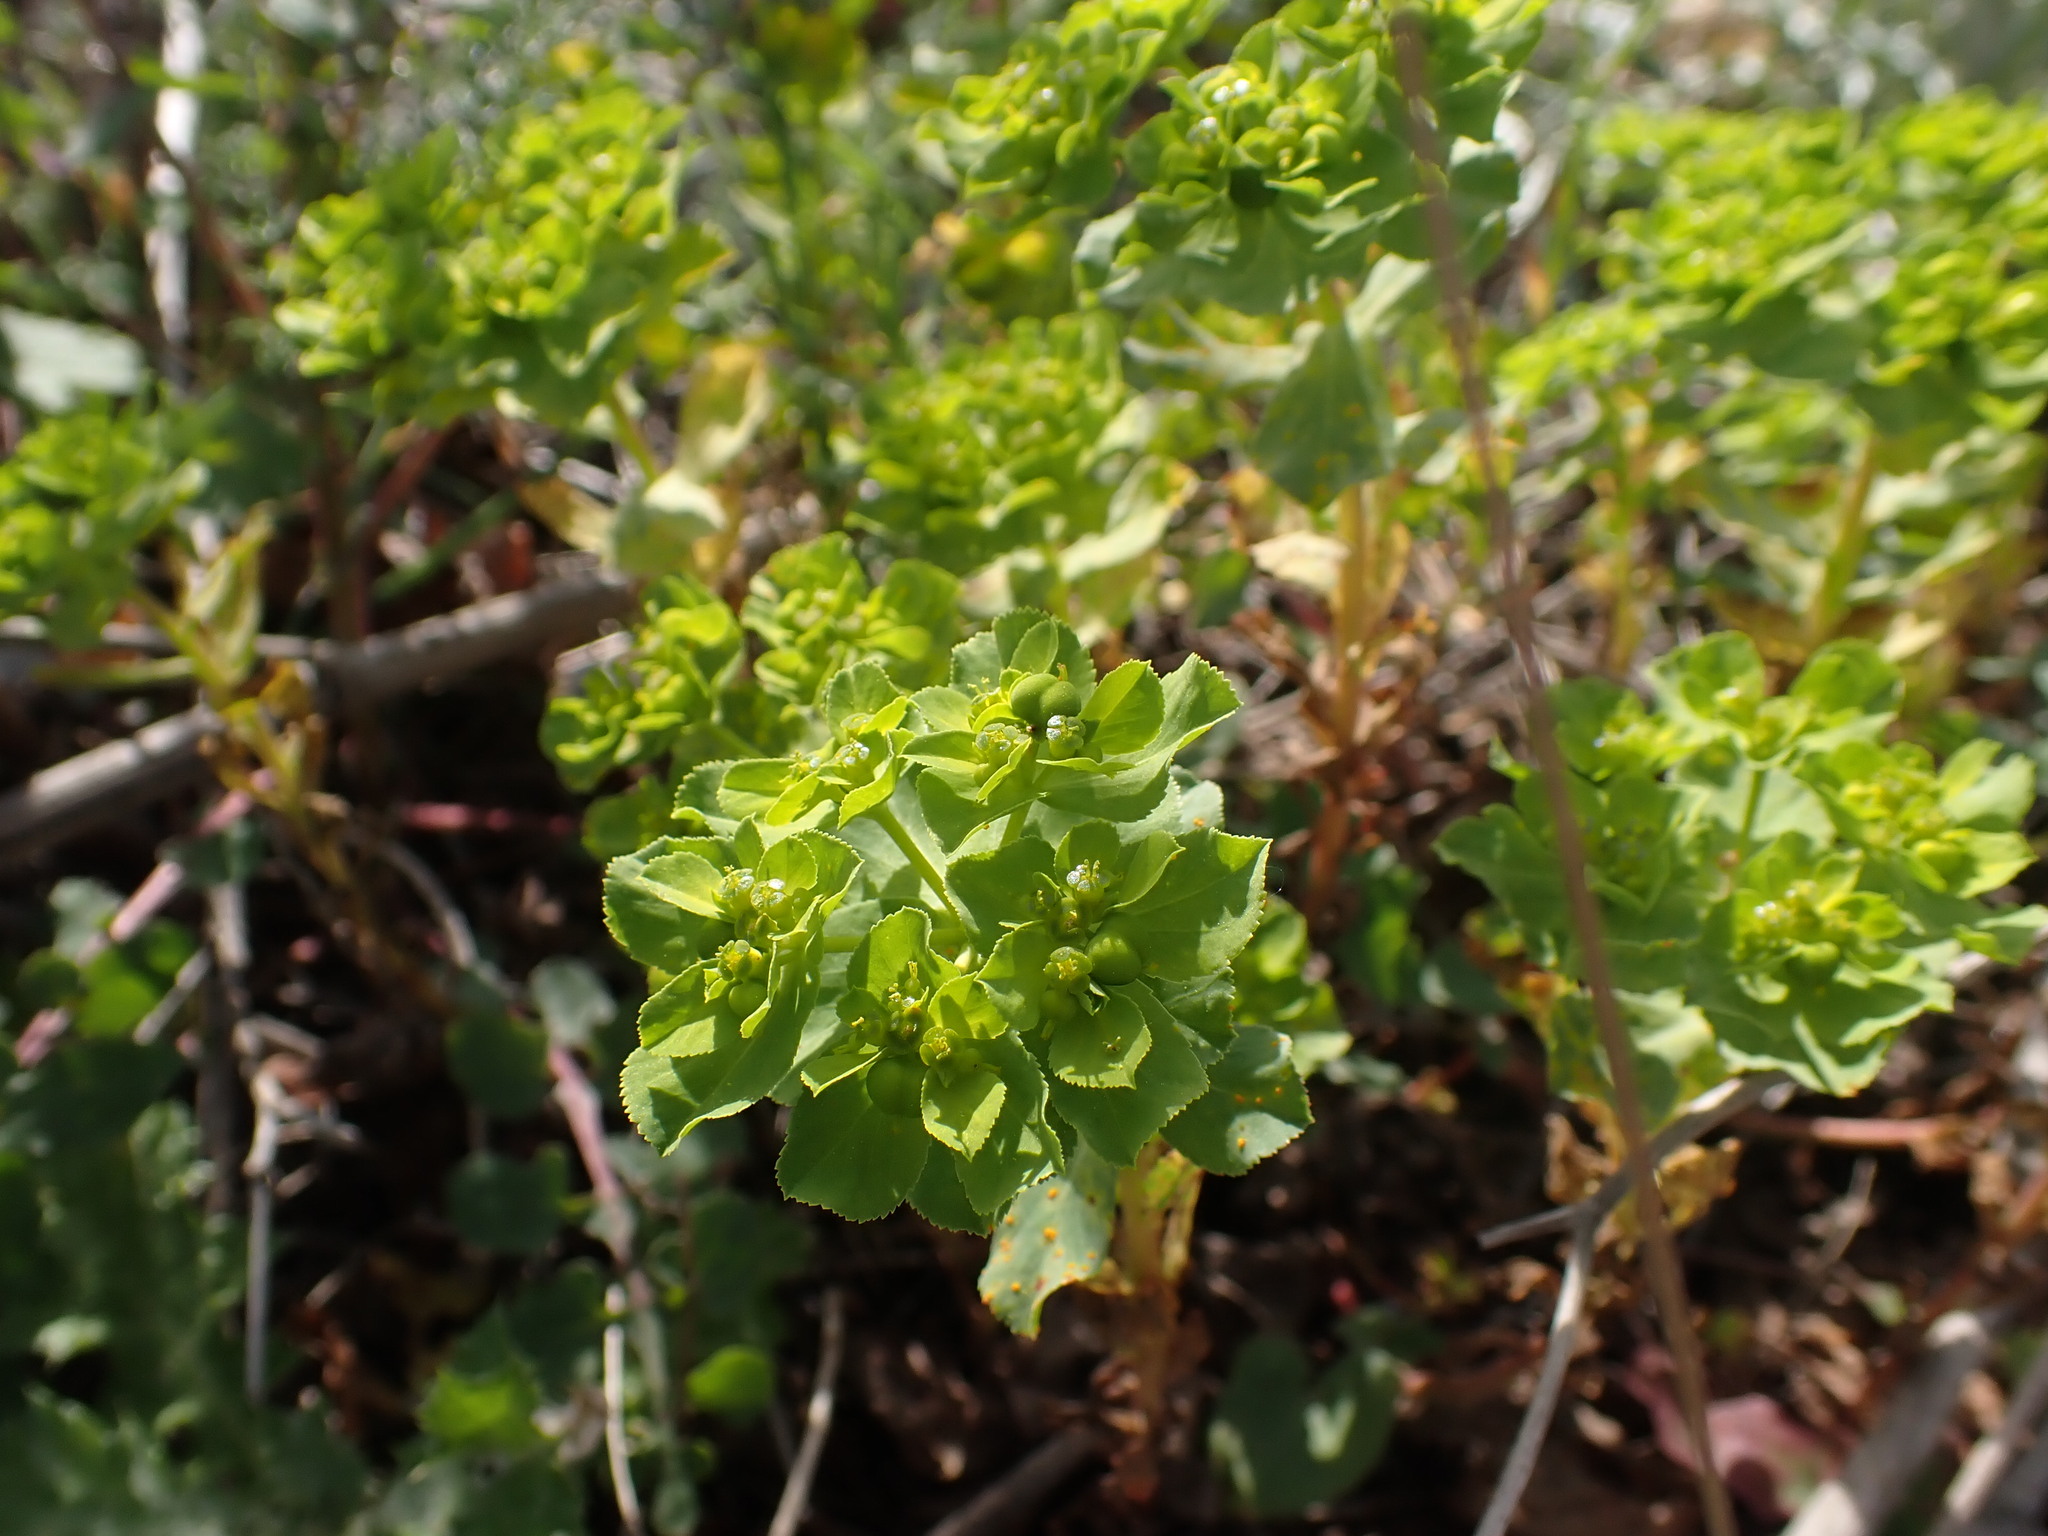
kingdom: Plantae
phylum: Tracheophyta
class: Magnoliopsida
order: Malpighiales
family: Euphorbiaceae
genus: Euphorbia
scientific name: Euphorbia helioscopia
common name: Sun spurge
